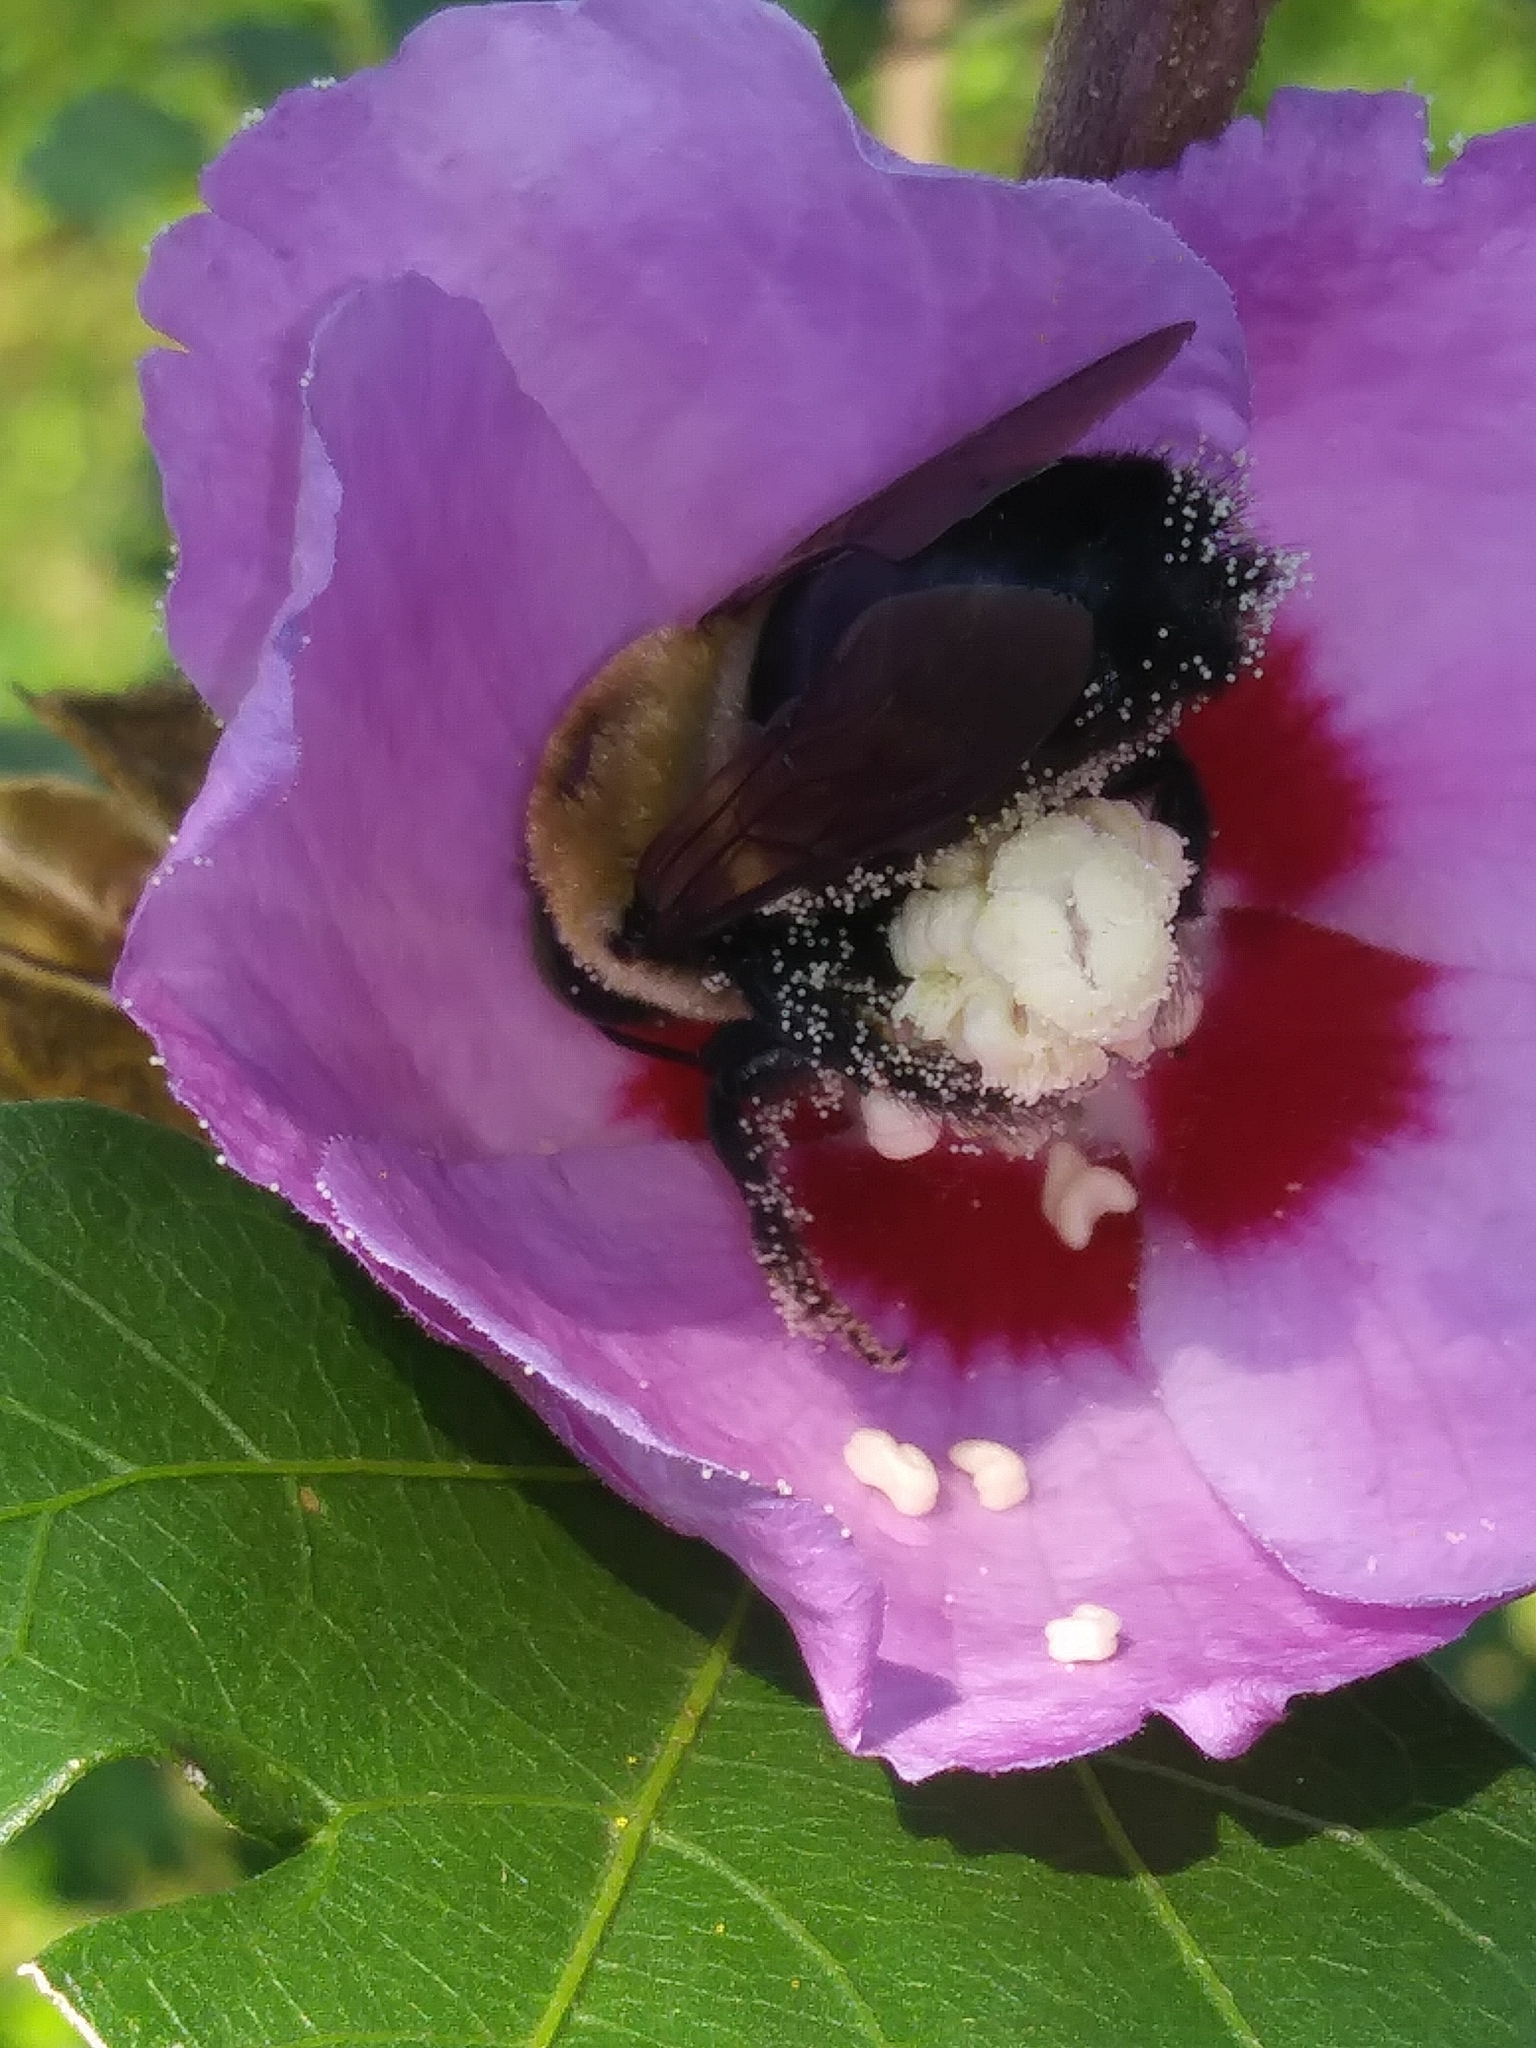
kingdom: Animalia
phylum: Arthropoda
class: Insecta
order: Hymenoptera
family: Apidae
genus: Xylocopa
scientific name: Xylocopa virginica
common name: Carpenter bee
